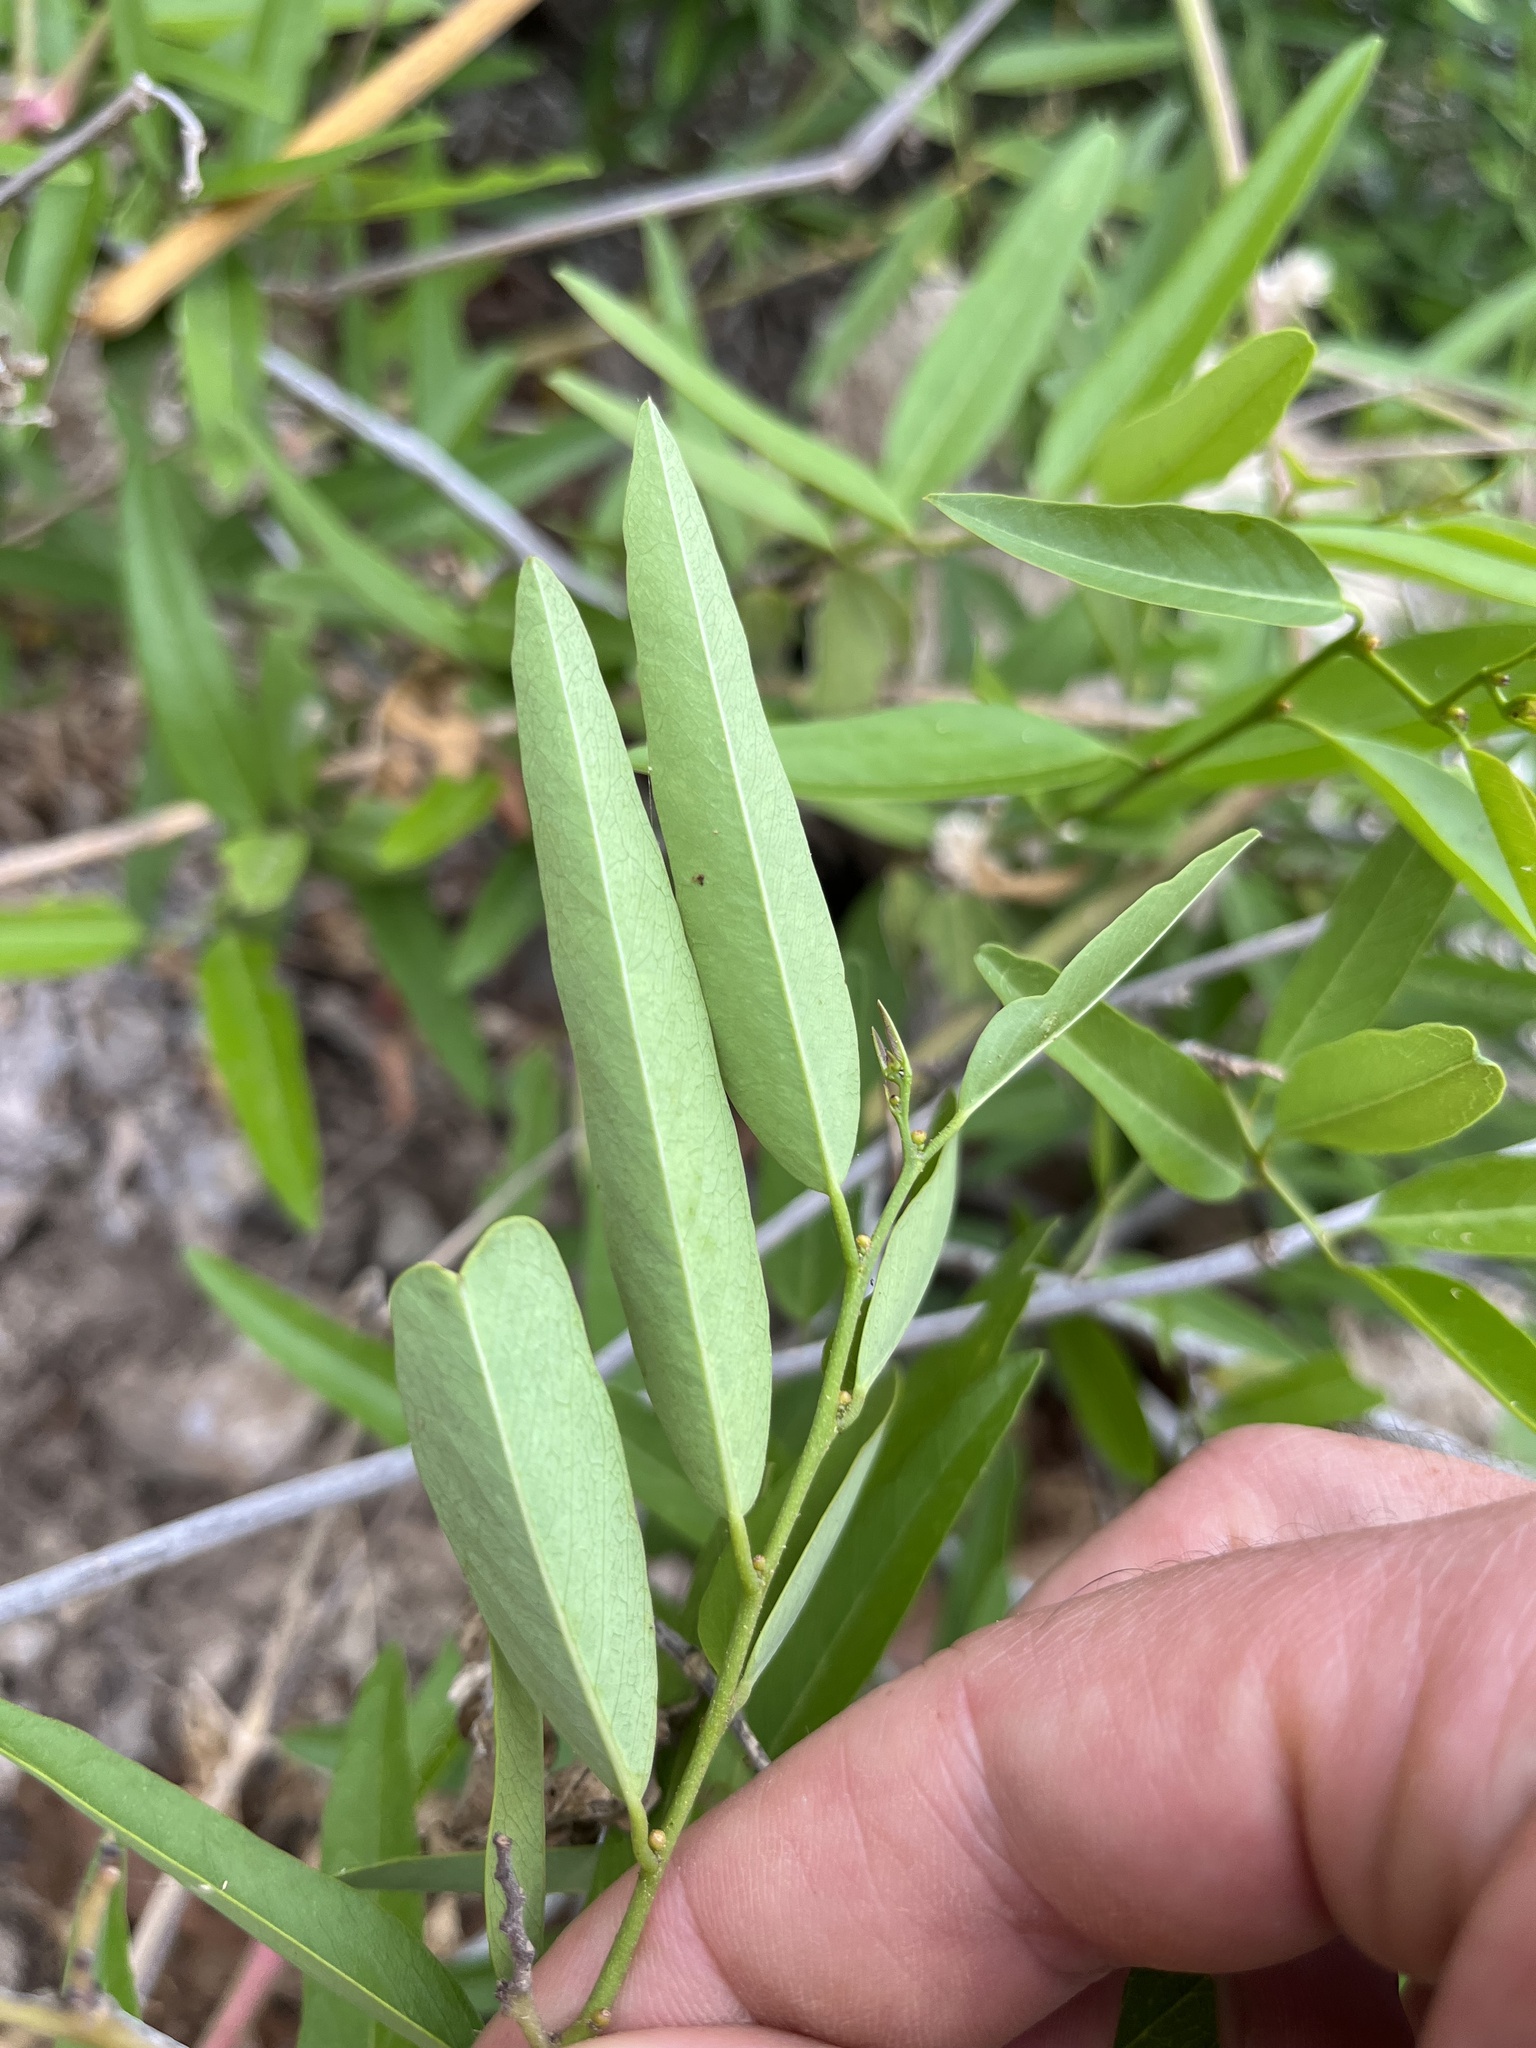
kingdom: Plantae
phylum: Tracheophyta
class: Magnoliopsida
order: Gentianales
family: Apocynaceae
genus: Vallesia
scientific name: Vallesia glabra
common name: Pearlberry
